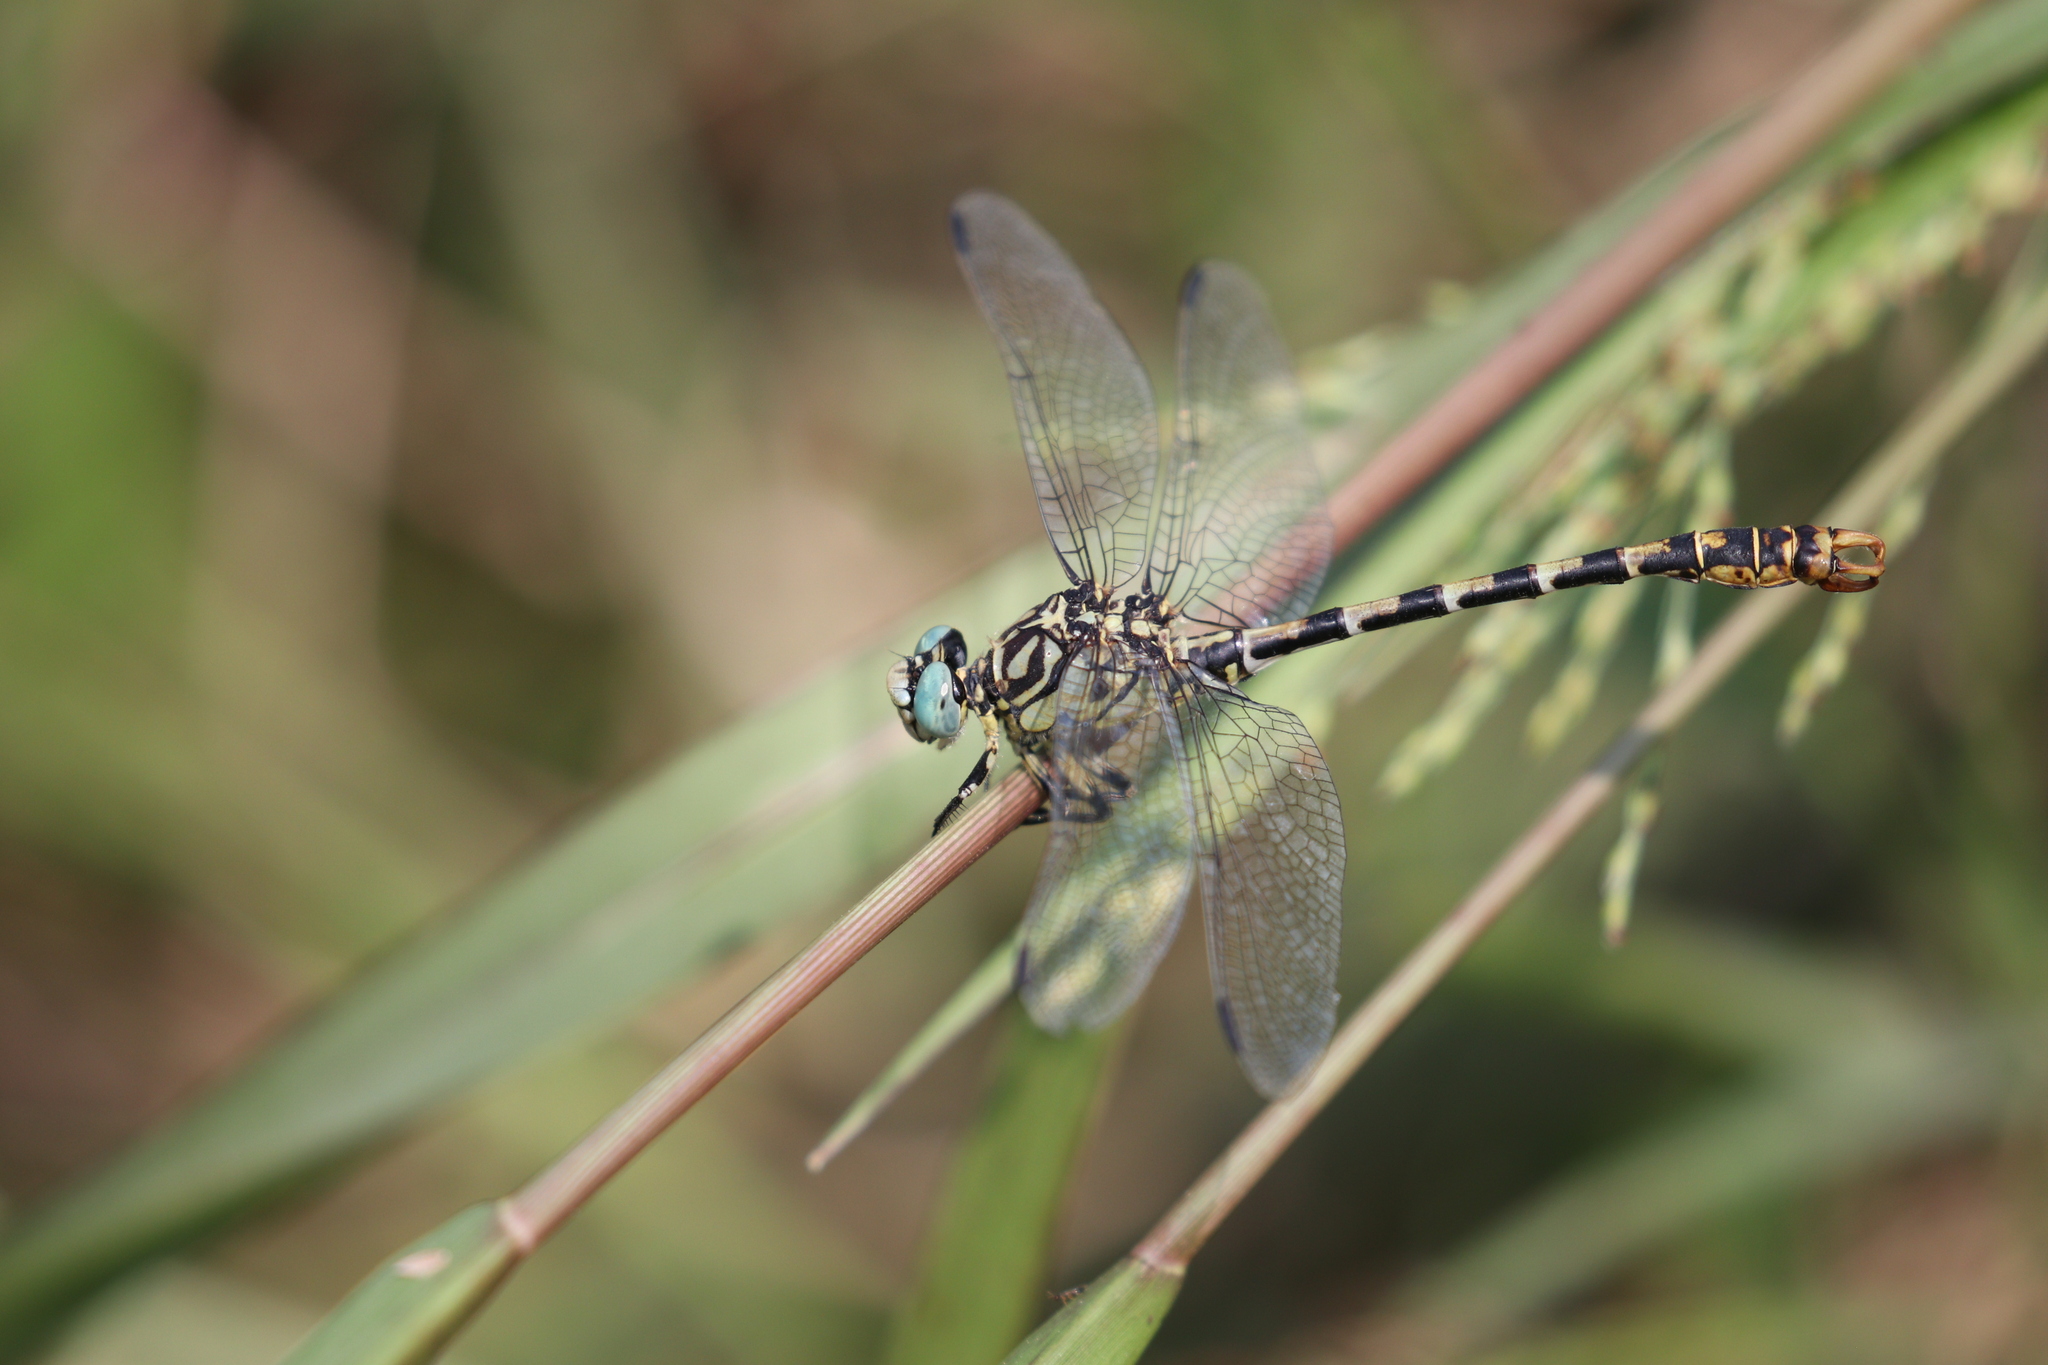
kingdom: Animalia
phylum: Arthropoda
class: Insecta
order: Odonata
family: Gomphidae
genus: Onychogomphus
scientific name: Onychogomphus forcipatus
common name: Small pincertail
